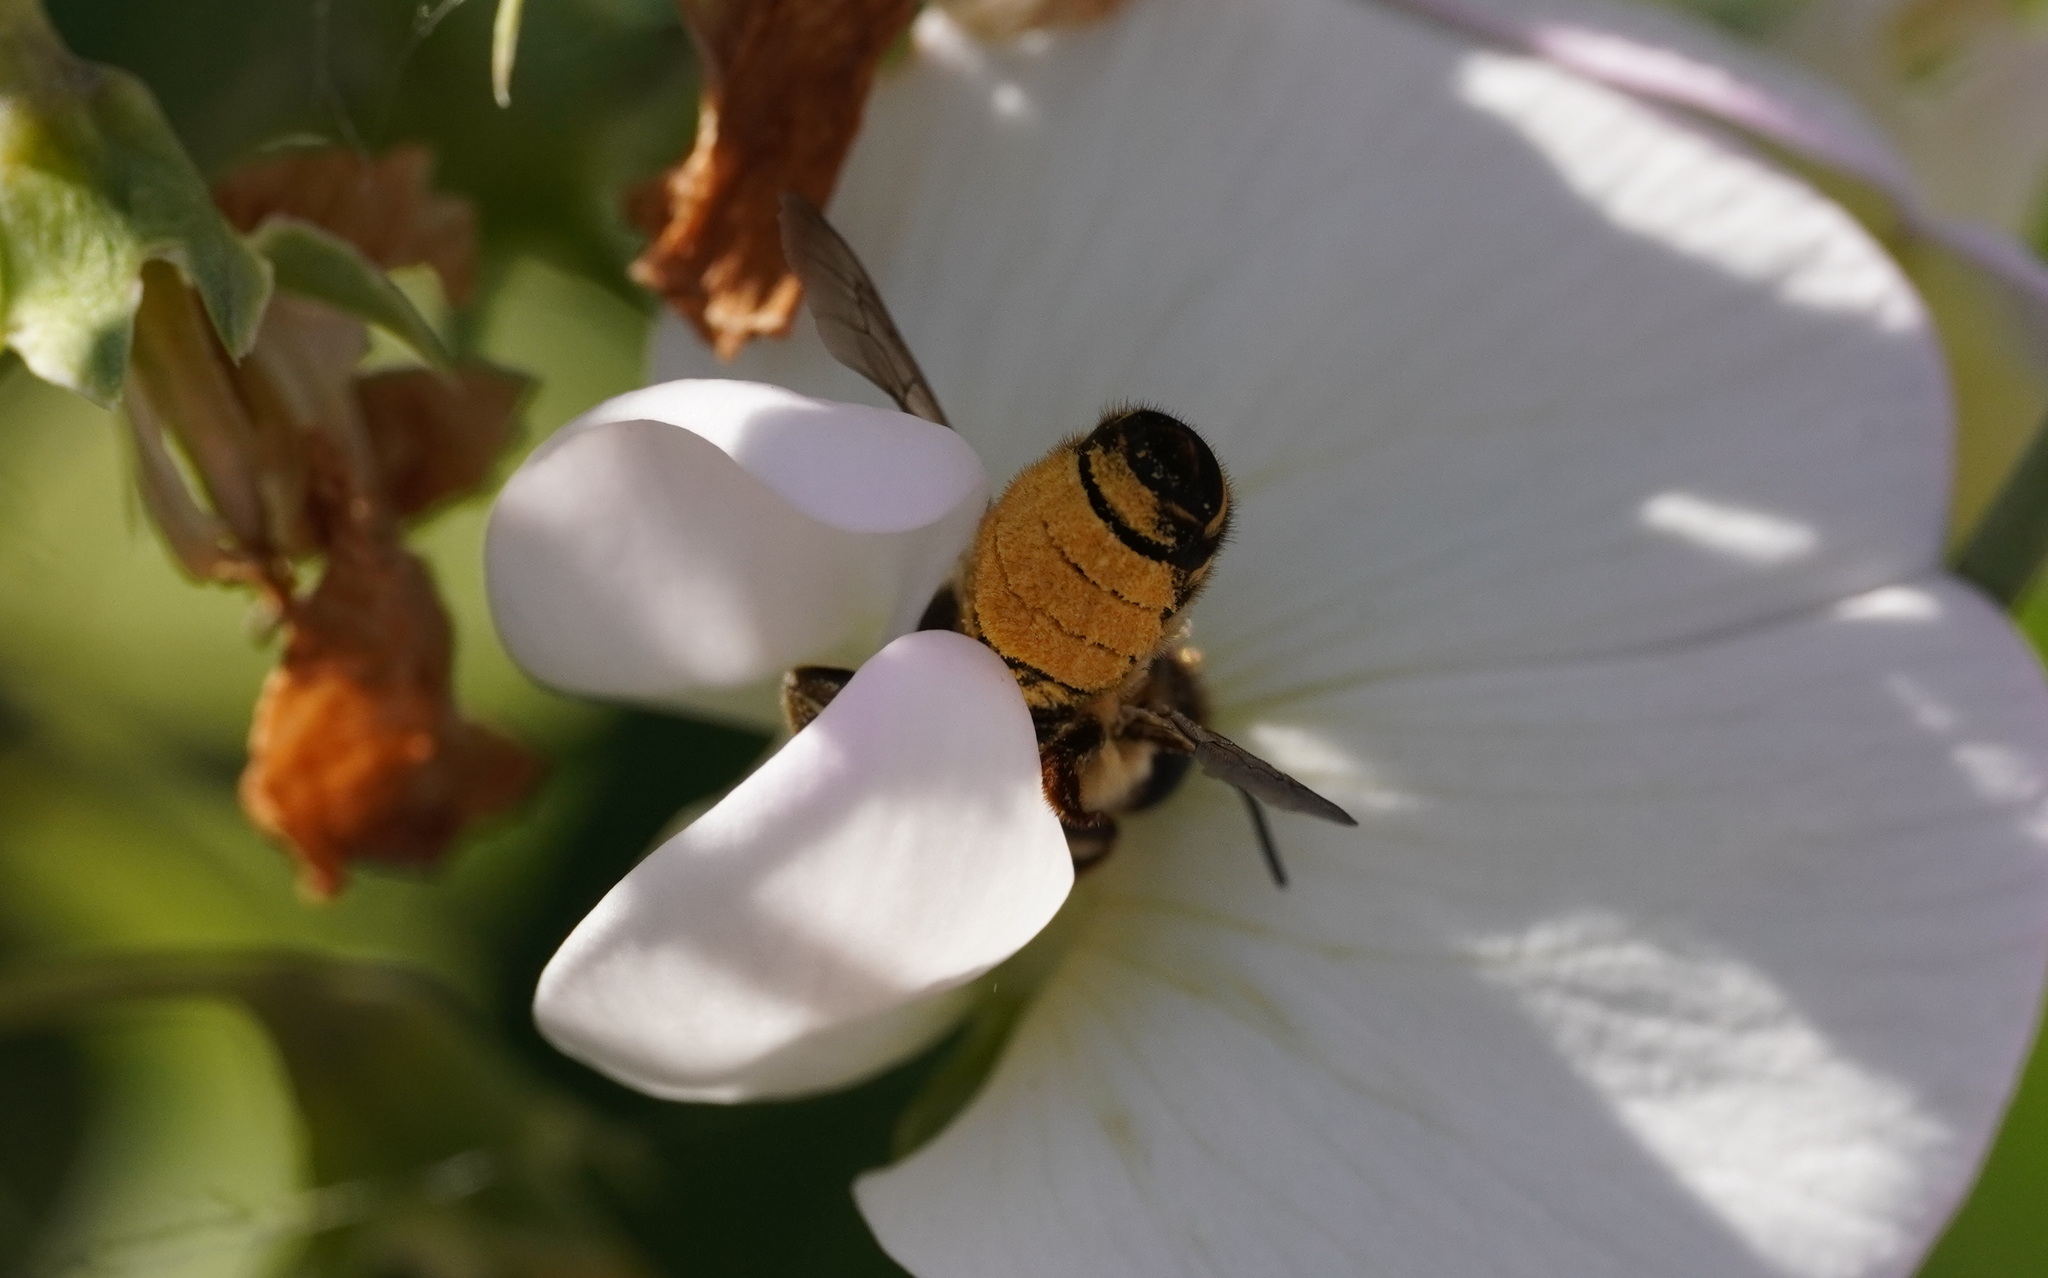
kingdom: Animalia
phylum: Arthropoda
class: Insecta
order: Hymenoptera
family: Megachilidae
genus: Megachile
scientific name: Megachile ericetorum
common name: Leafcutter bee
